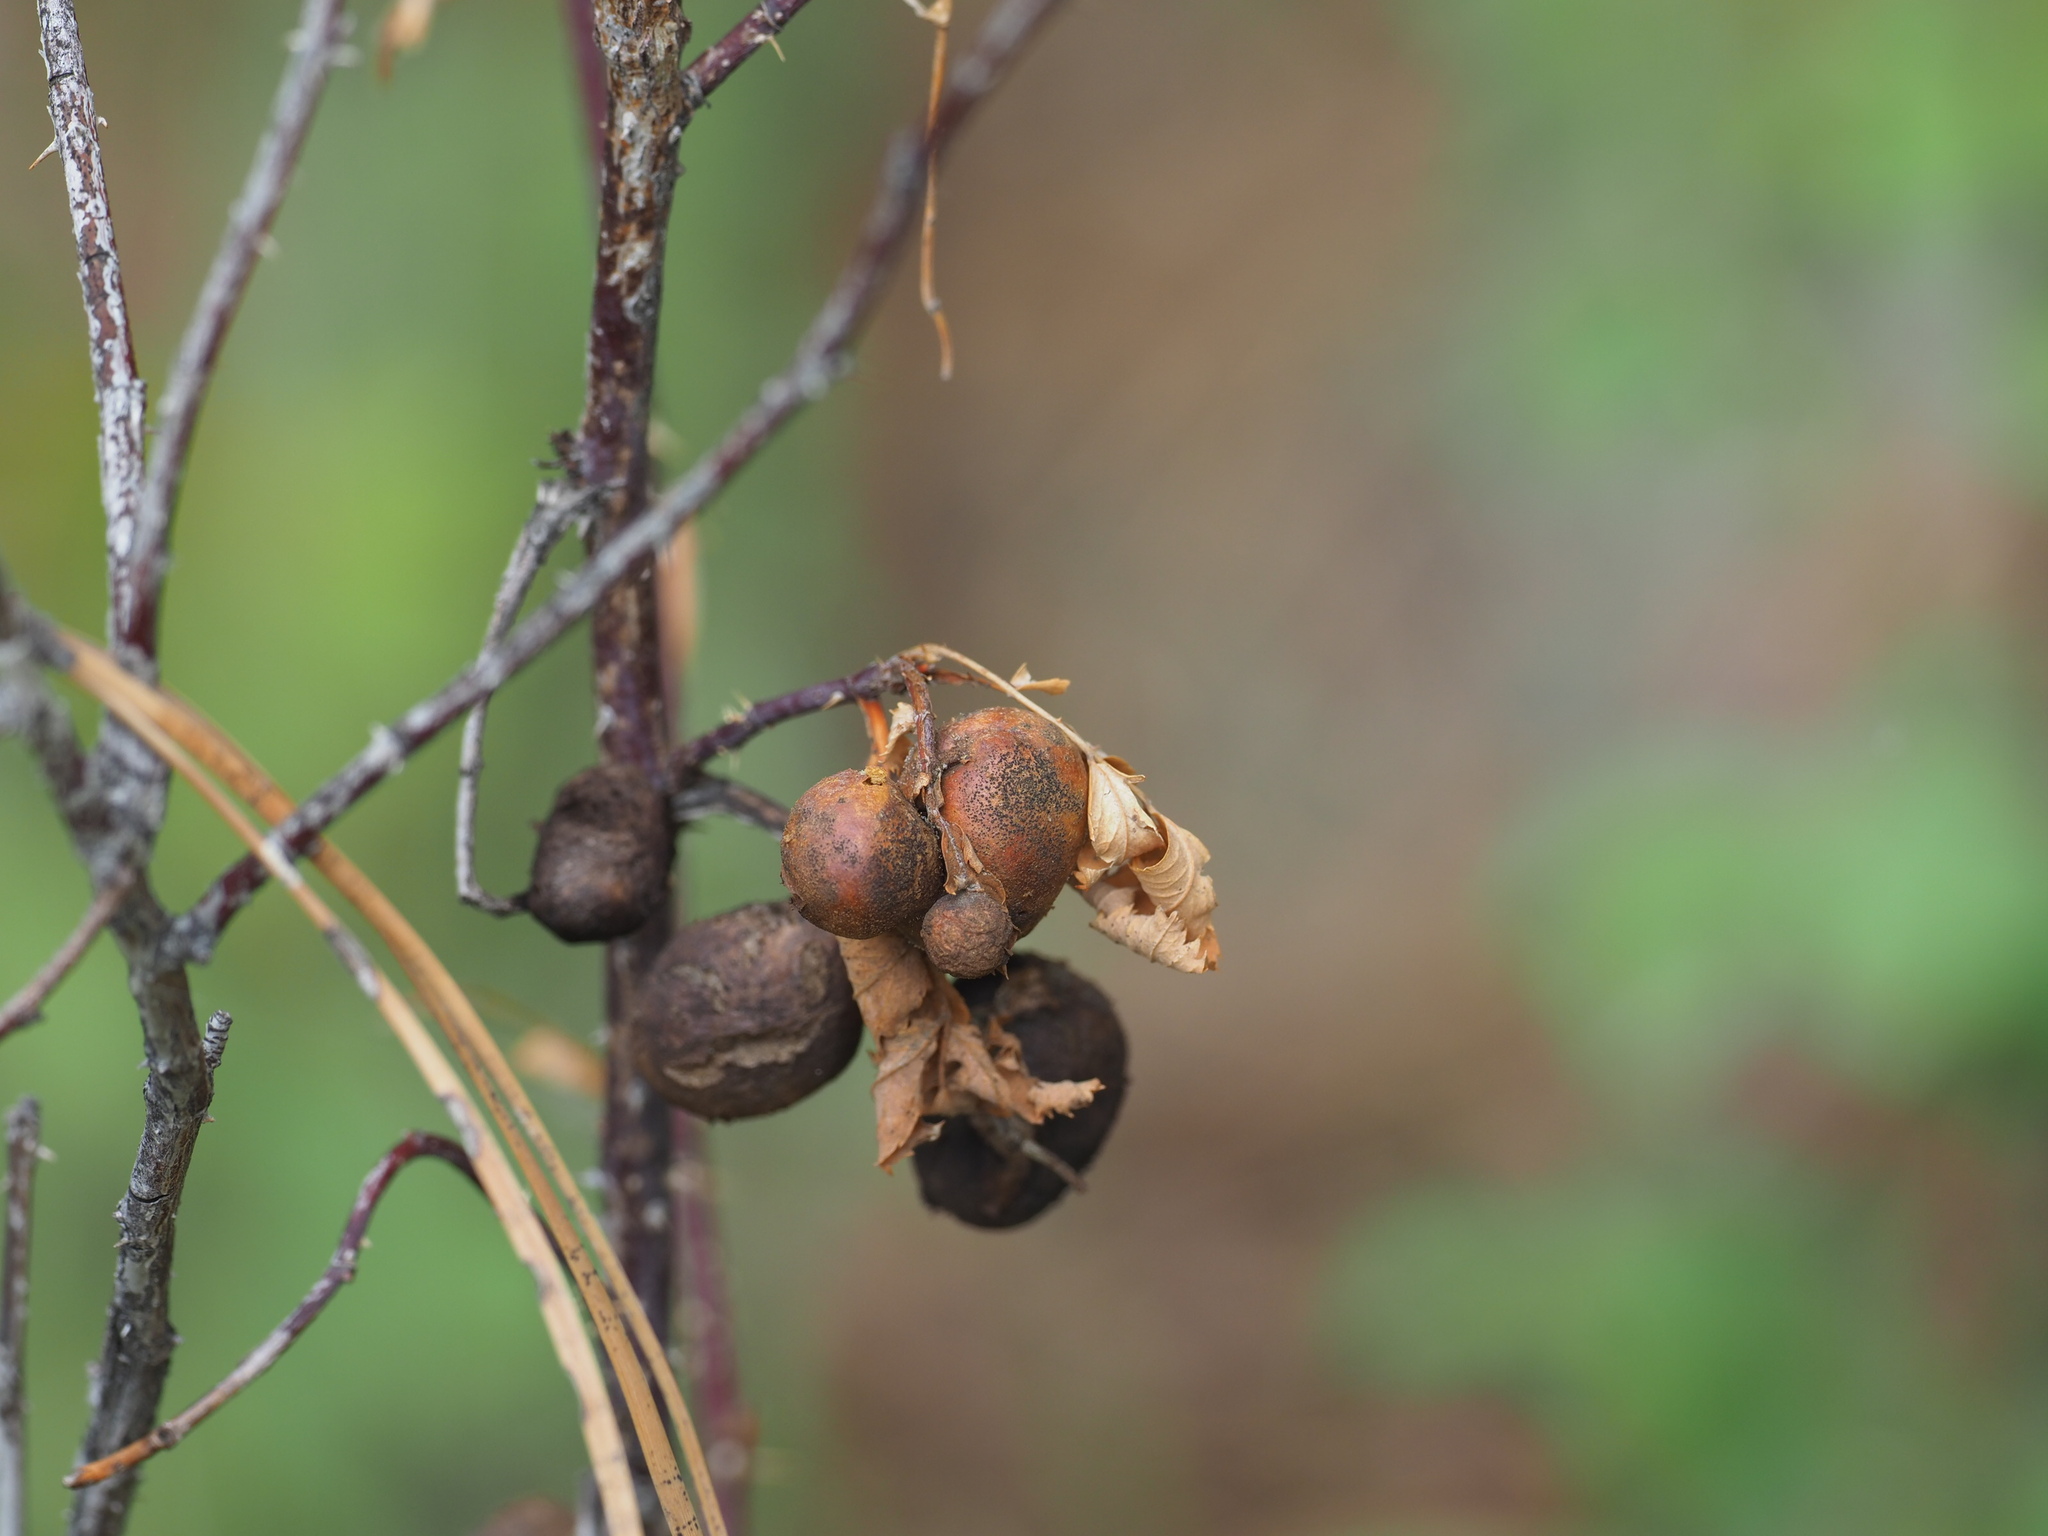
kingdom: Animalia
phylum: Arthropoda
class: Insecta
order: Hymenoptera
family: Cynipidae
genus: Diplolepis
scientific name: Diplolepis variabilis
